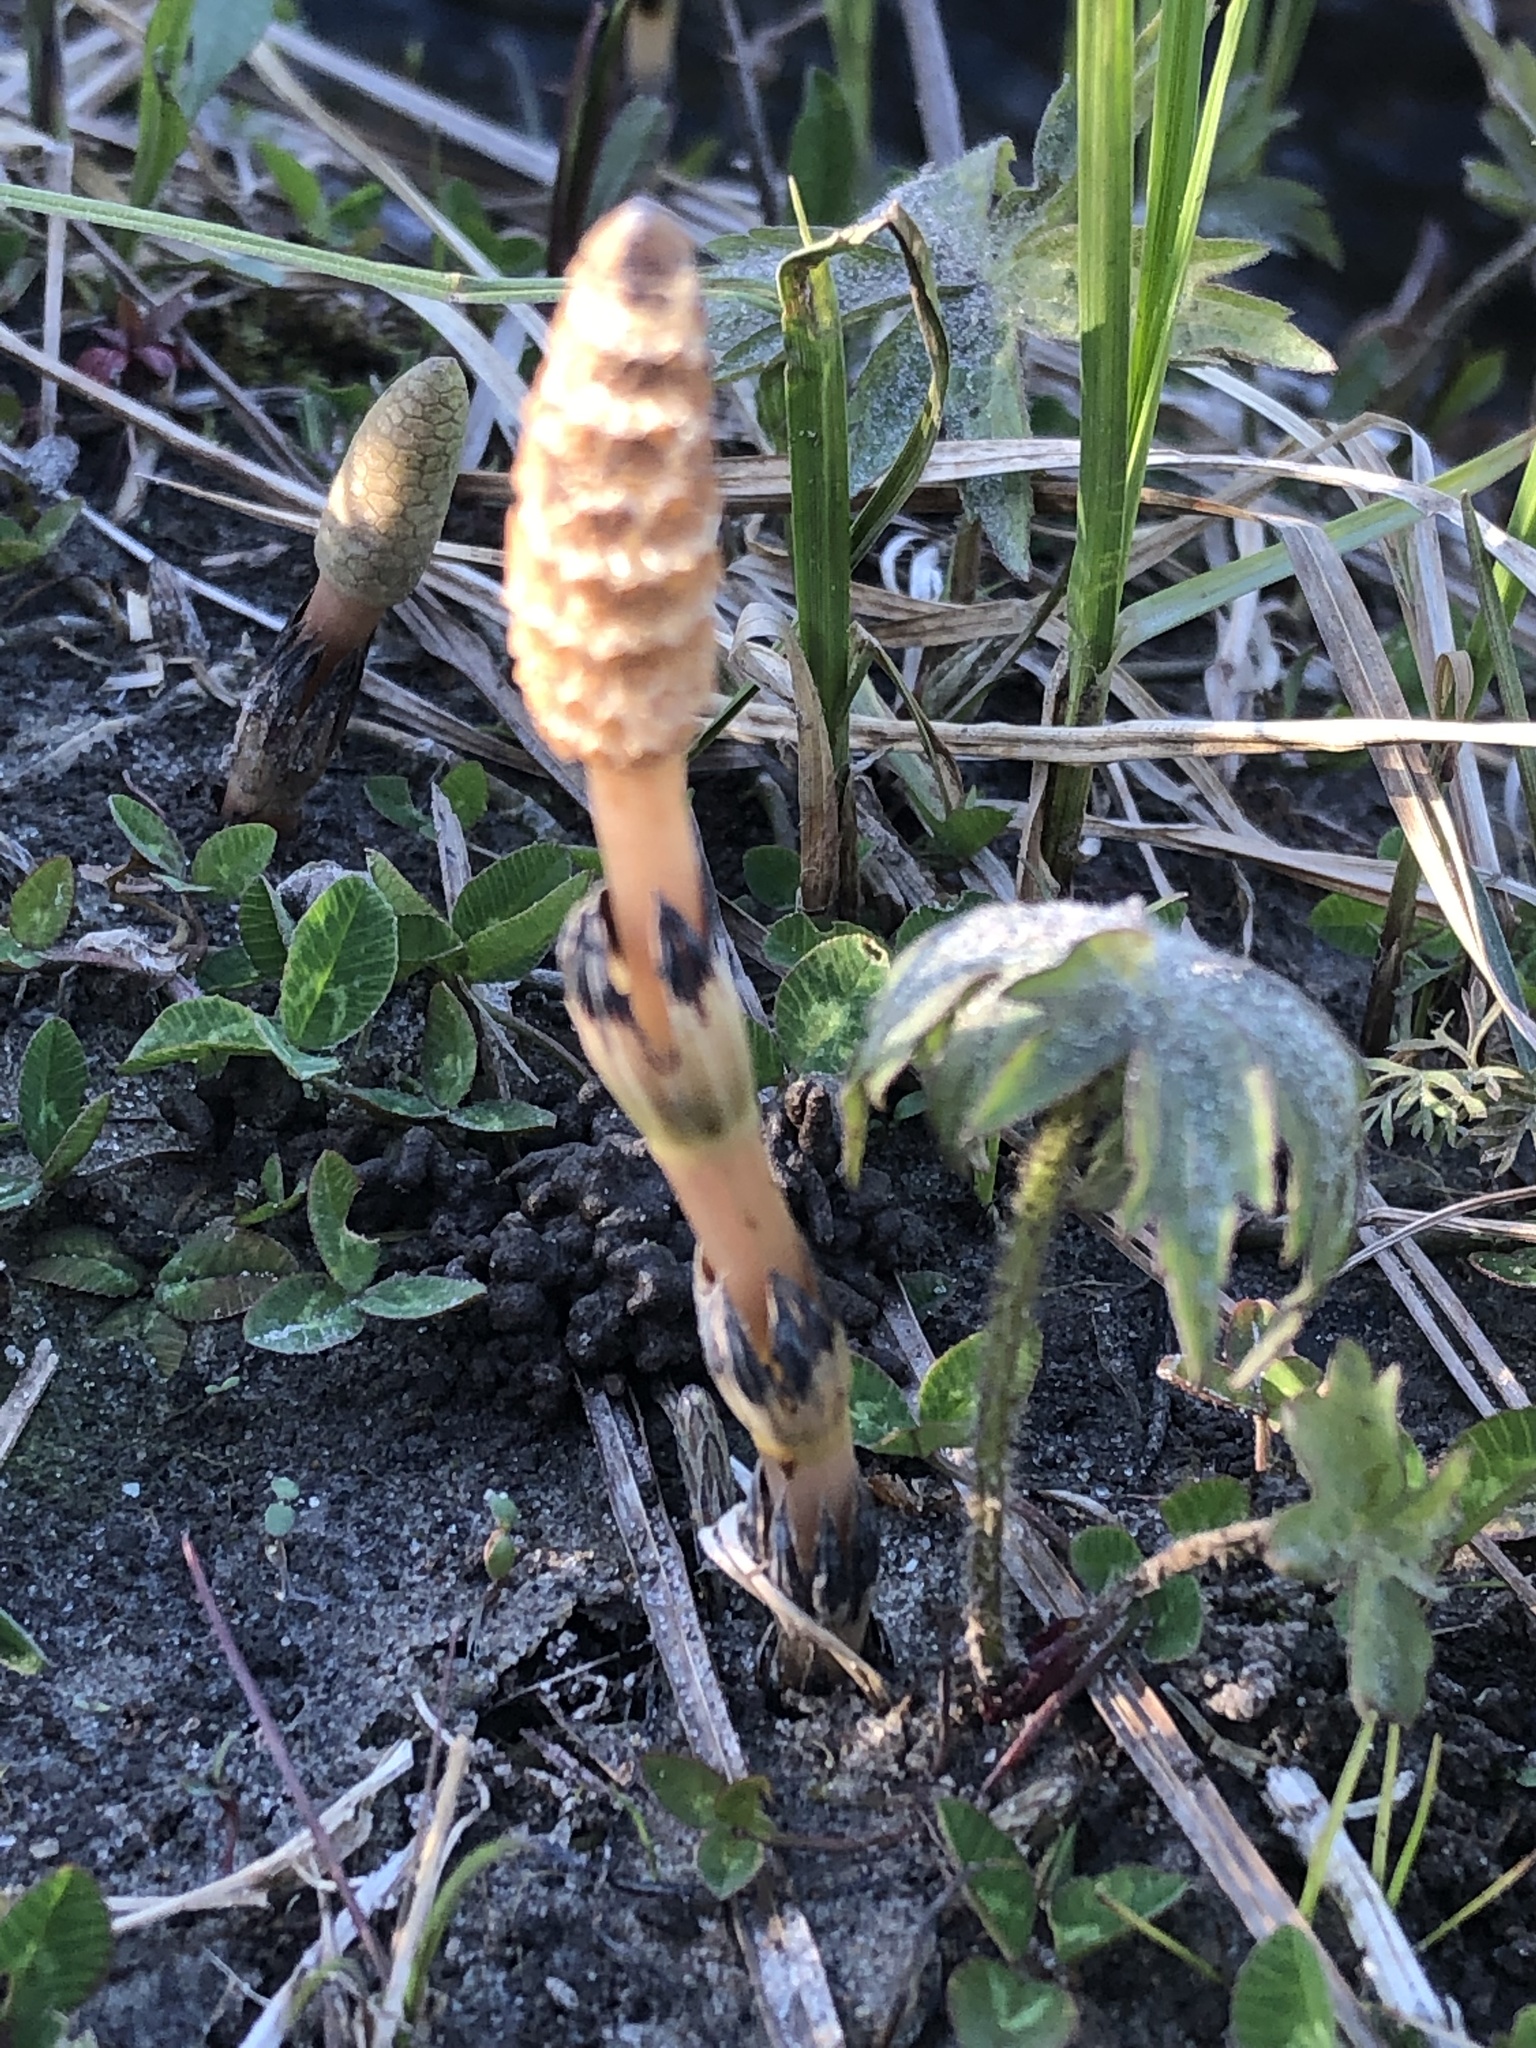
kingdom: Plantae
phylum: Tracheophyta
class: Polypodiopsida
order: Equisetales
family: Equisetaceae
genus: Equisetum
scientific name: Equisetum arvense
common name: Field horsetail
